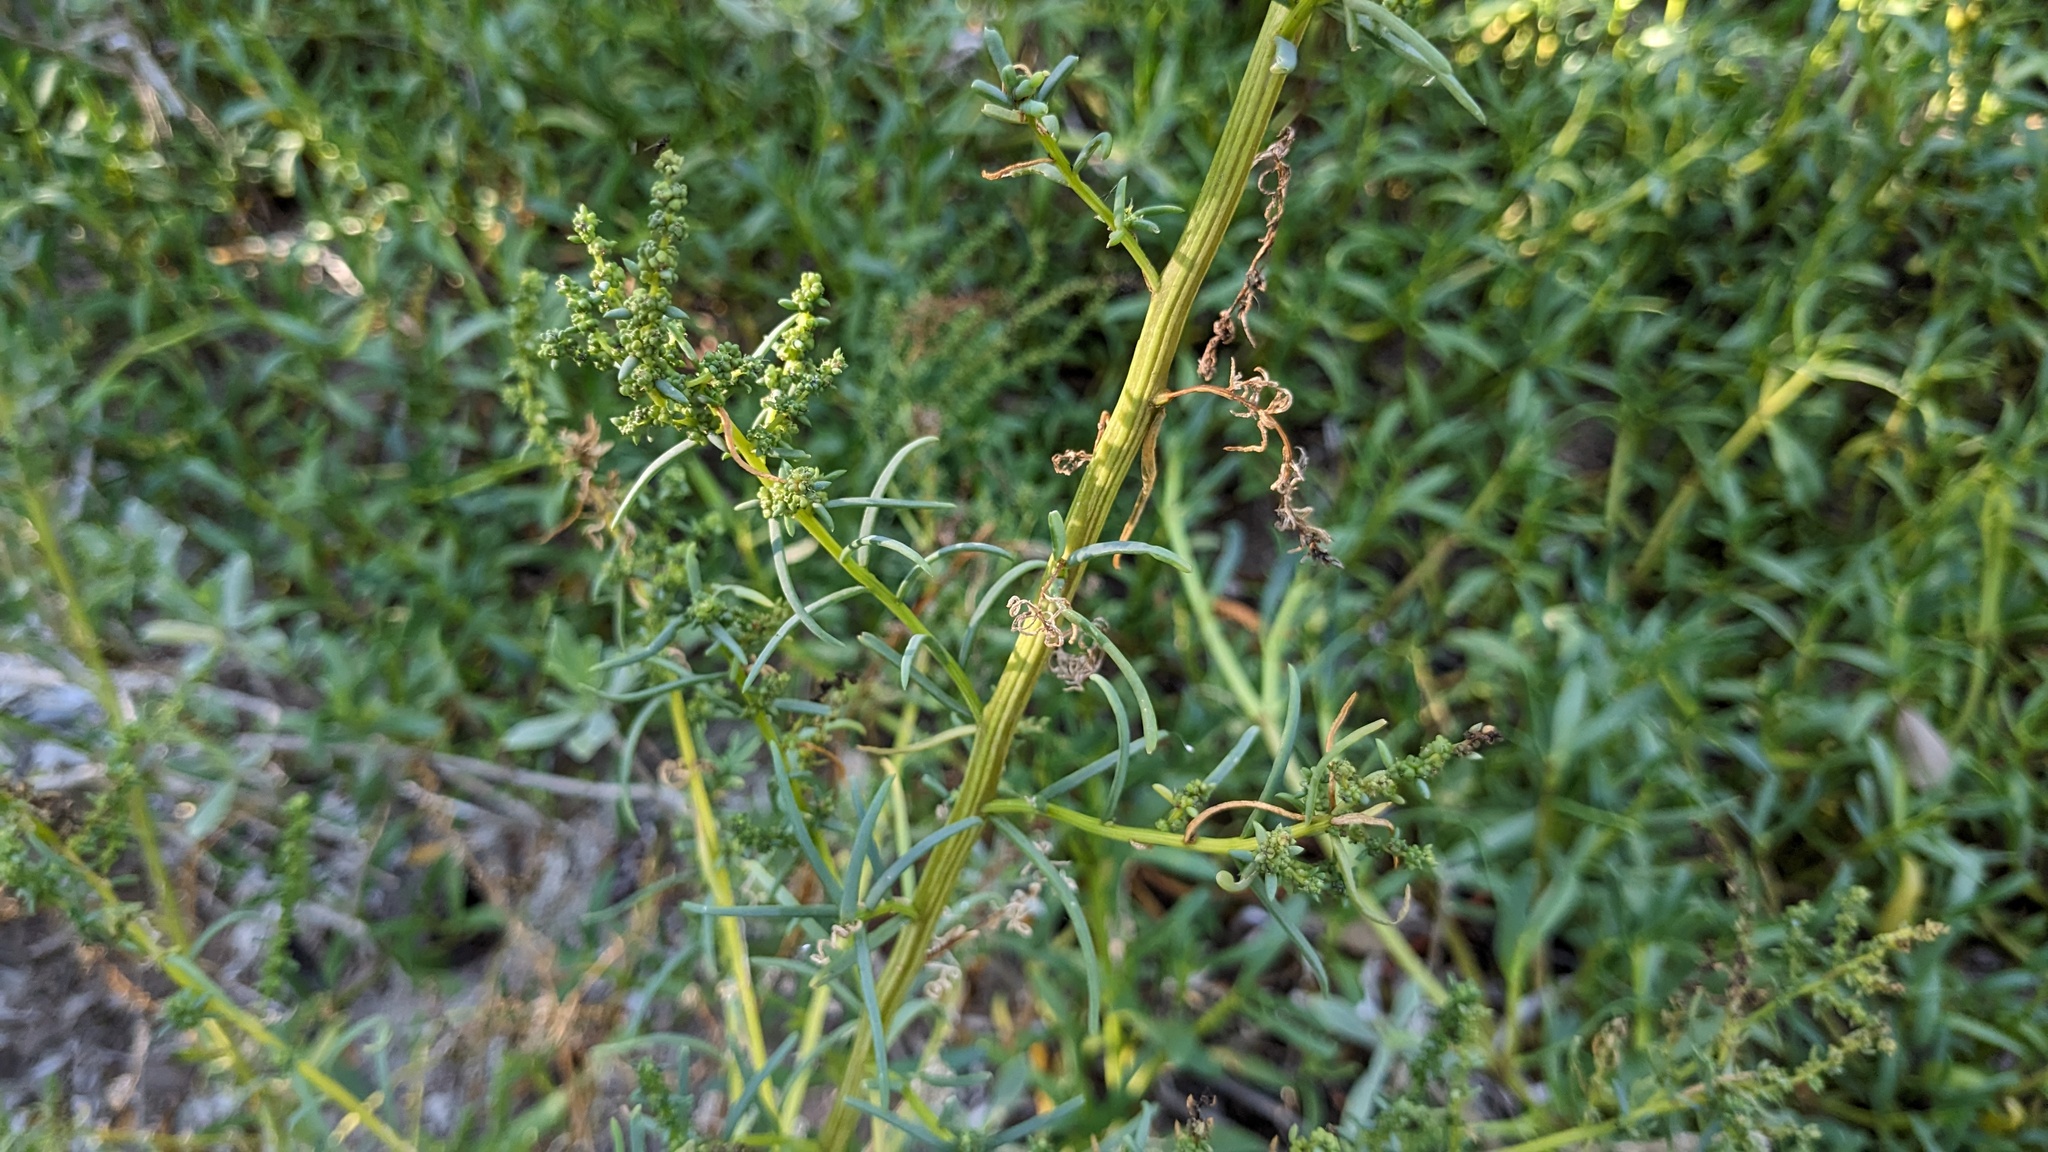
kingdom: Plantae
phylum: Tracheophyta
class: Magnoliopsida
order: Caryophyllales
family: Amaranthaceae
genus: Suaeda
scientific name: Suaeda linearis
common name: Annual seepweed
